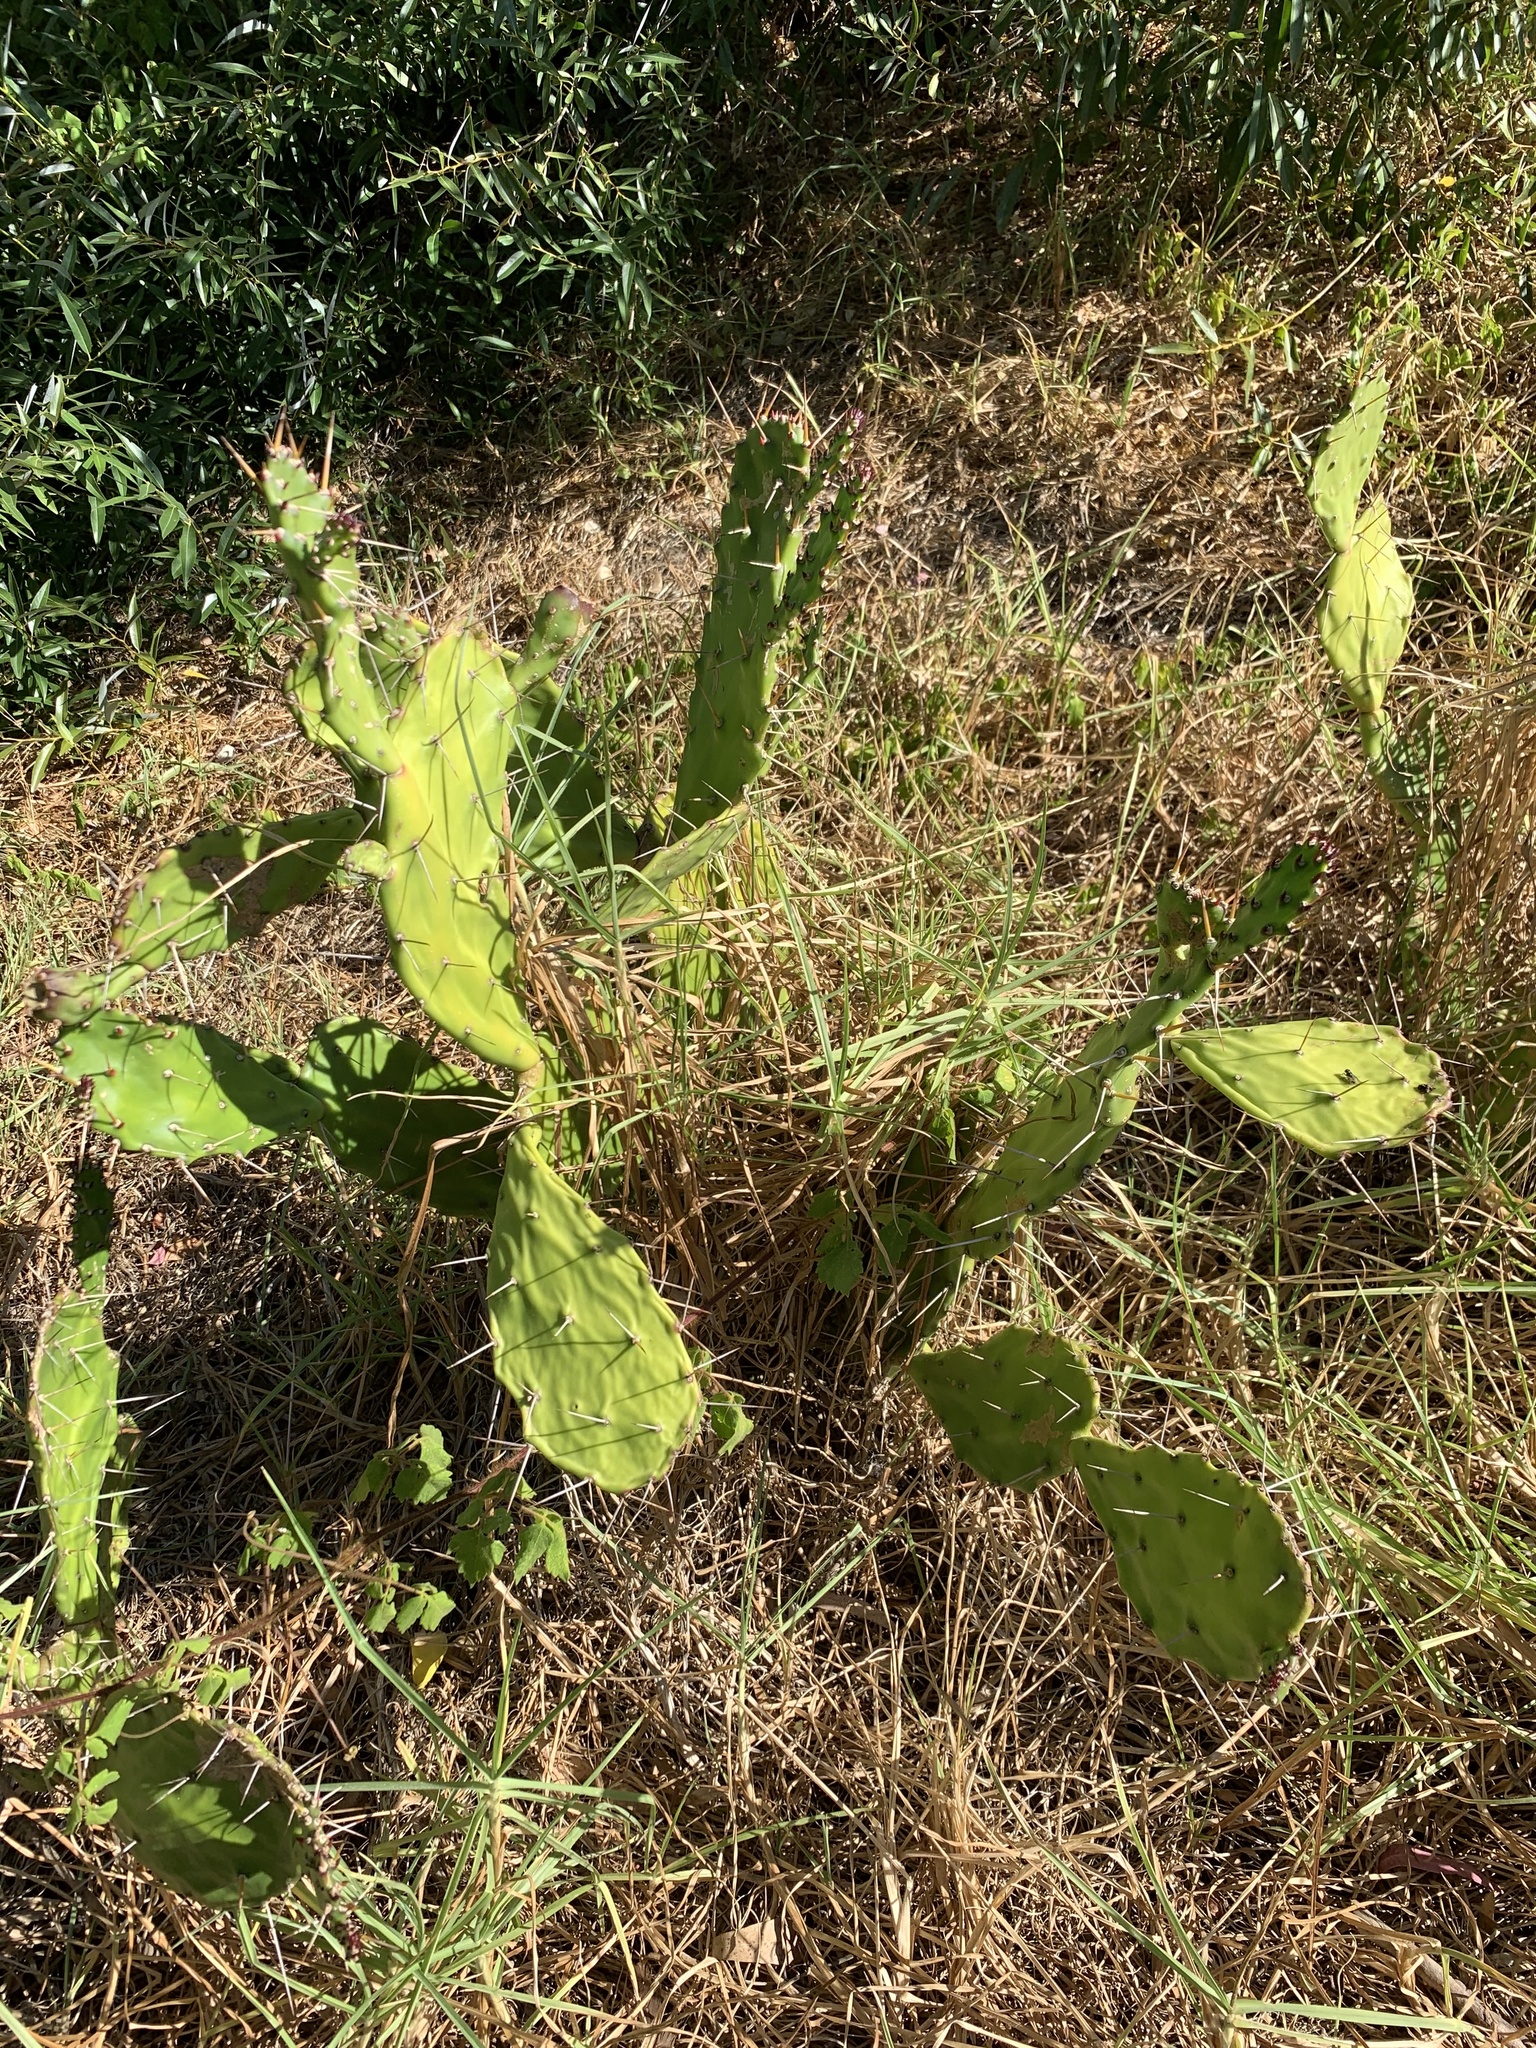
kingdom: Plantae
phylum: Tracheophyta
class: Magnoliopsida
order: Caryophyllales
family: Cactaceae
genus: Opuntia
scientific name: Opuntia monacantha
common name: Common pricklypear
